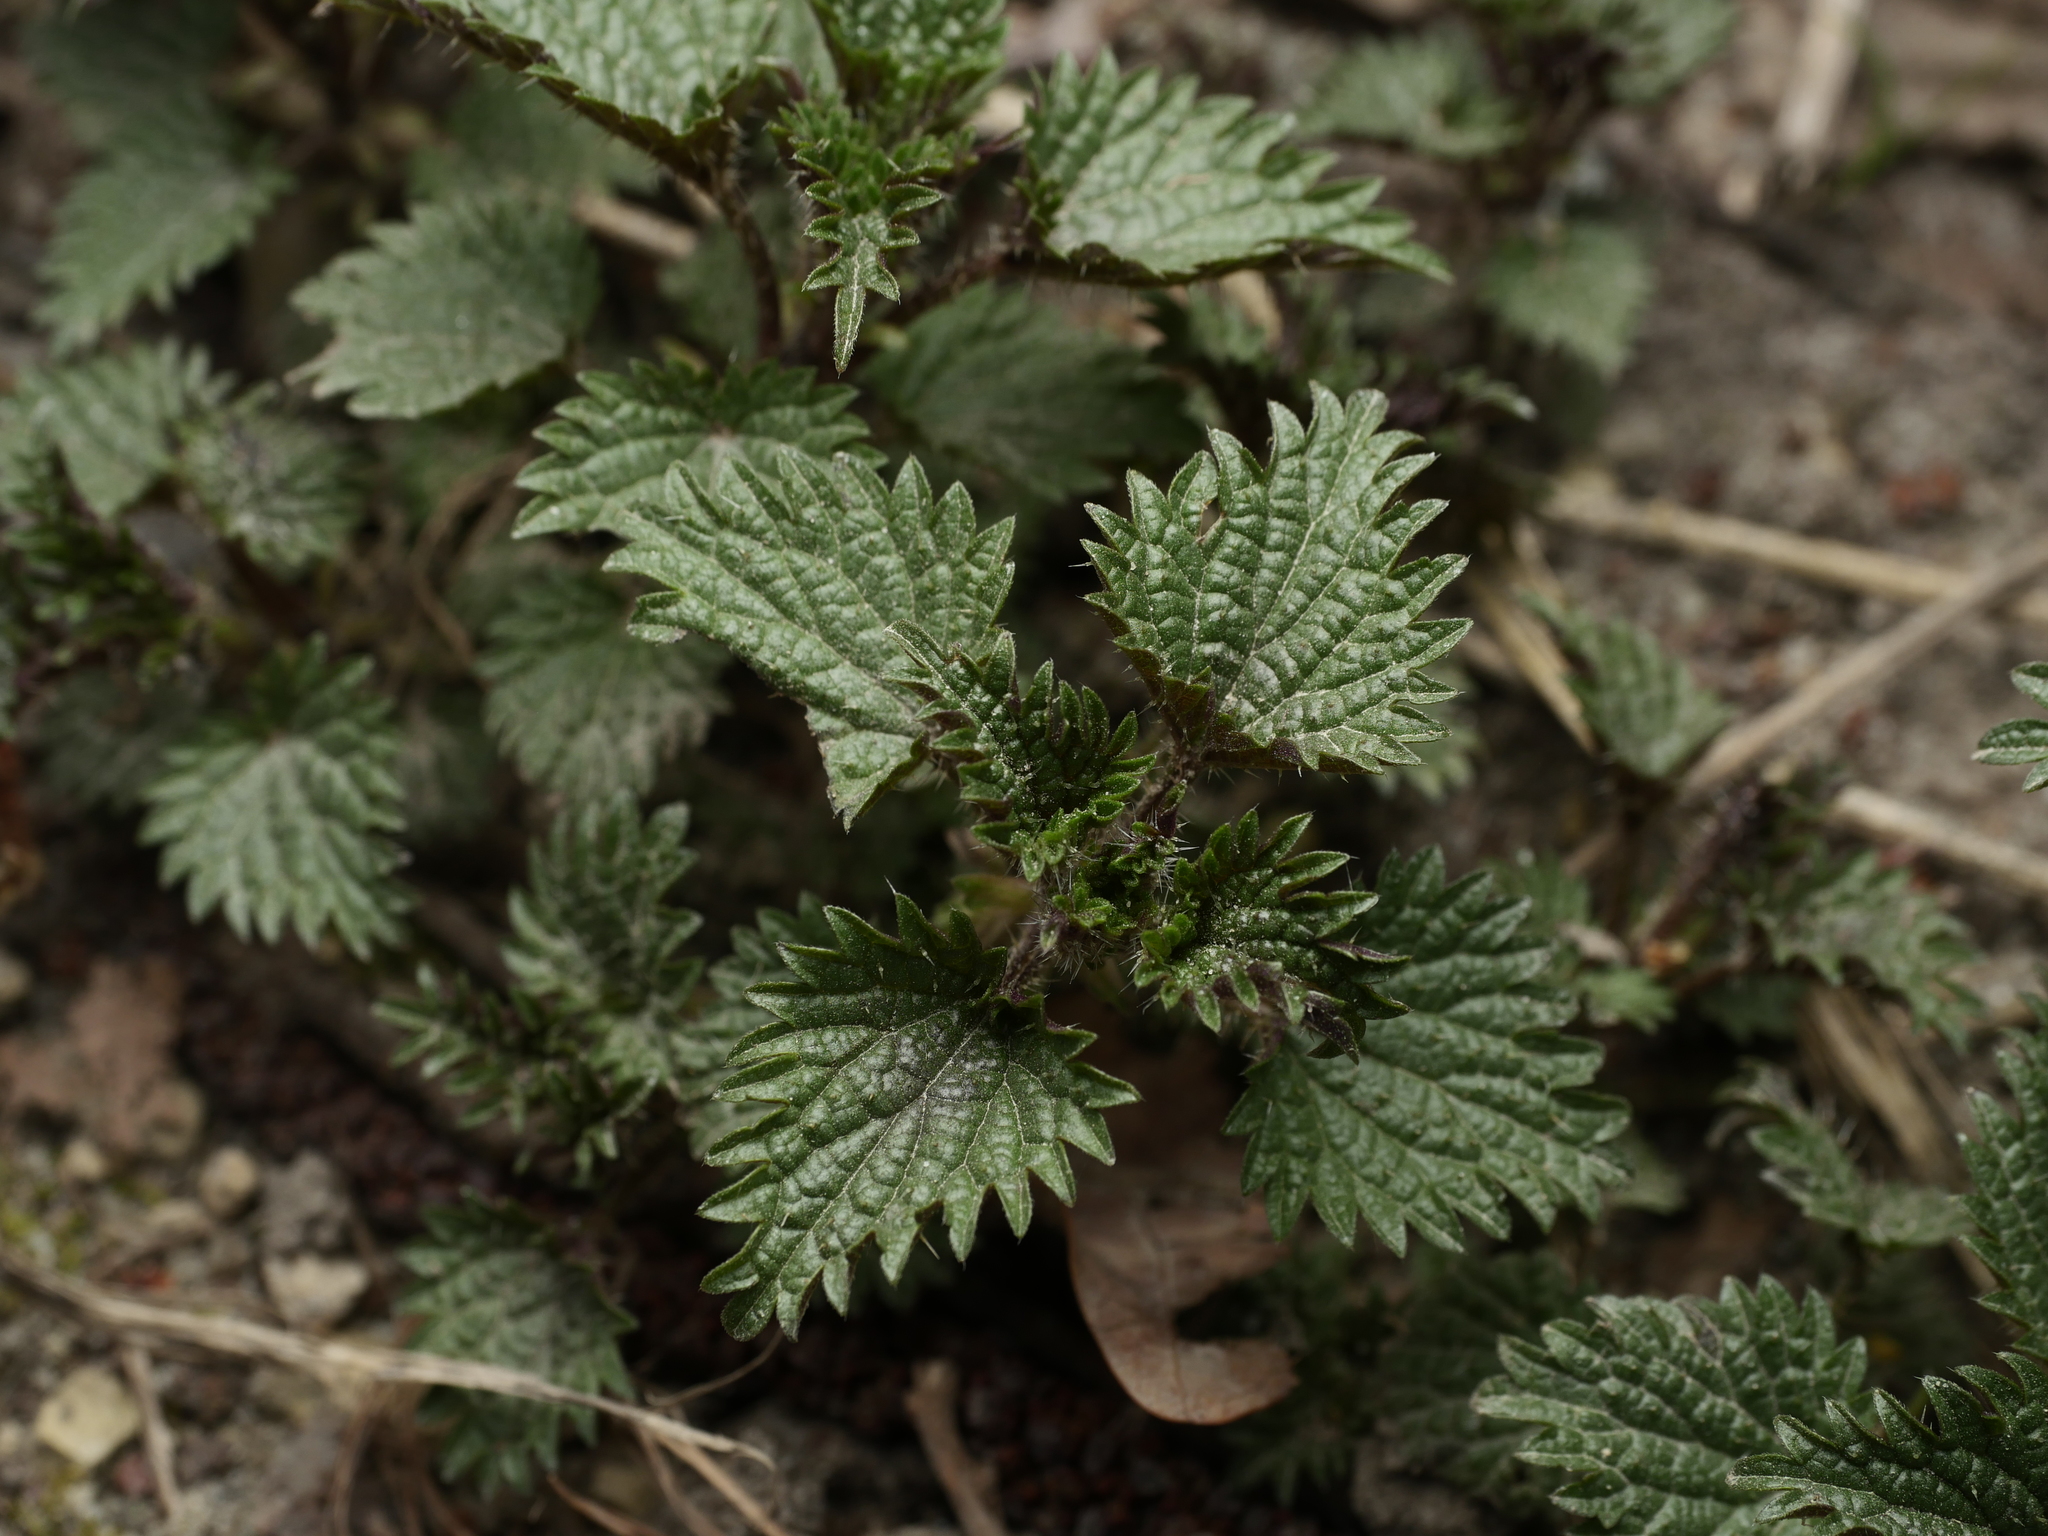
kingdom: Plantae
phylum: Tracheophyta
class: Magnoliopsida
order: Rosales
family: Urticaceae
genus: Urtica
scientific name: Urtica dioica
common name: Common nettle
